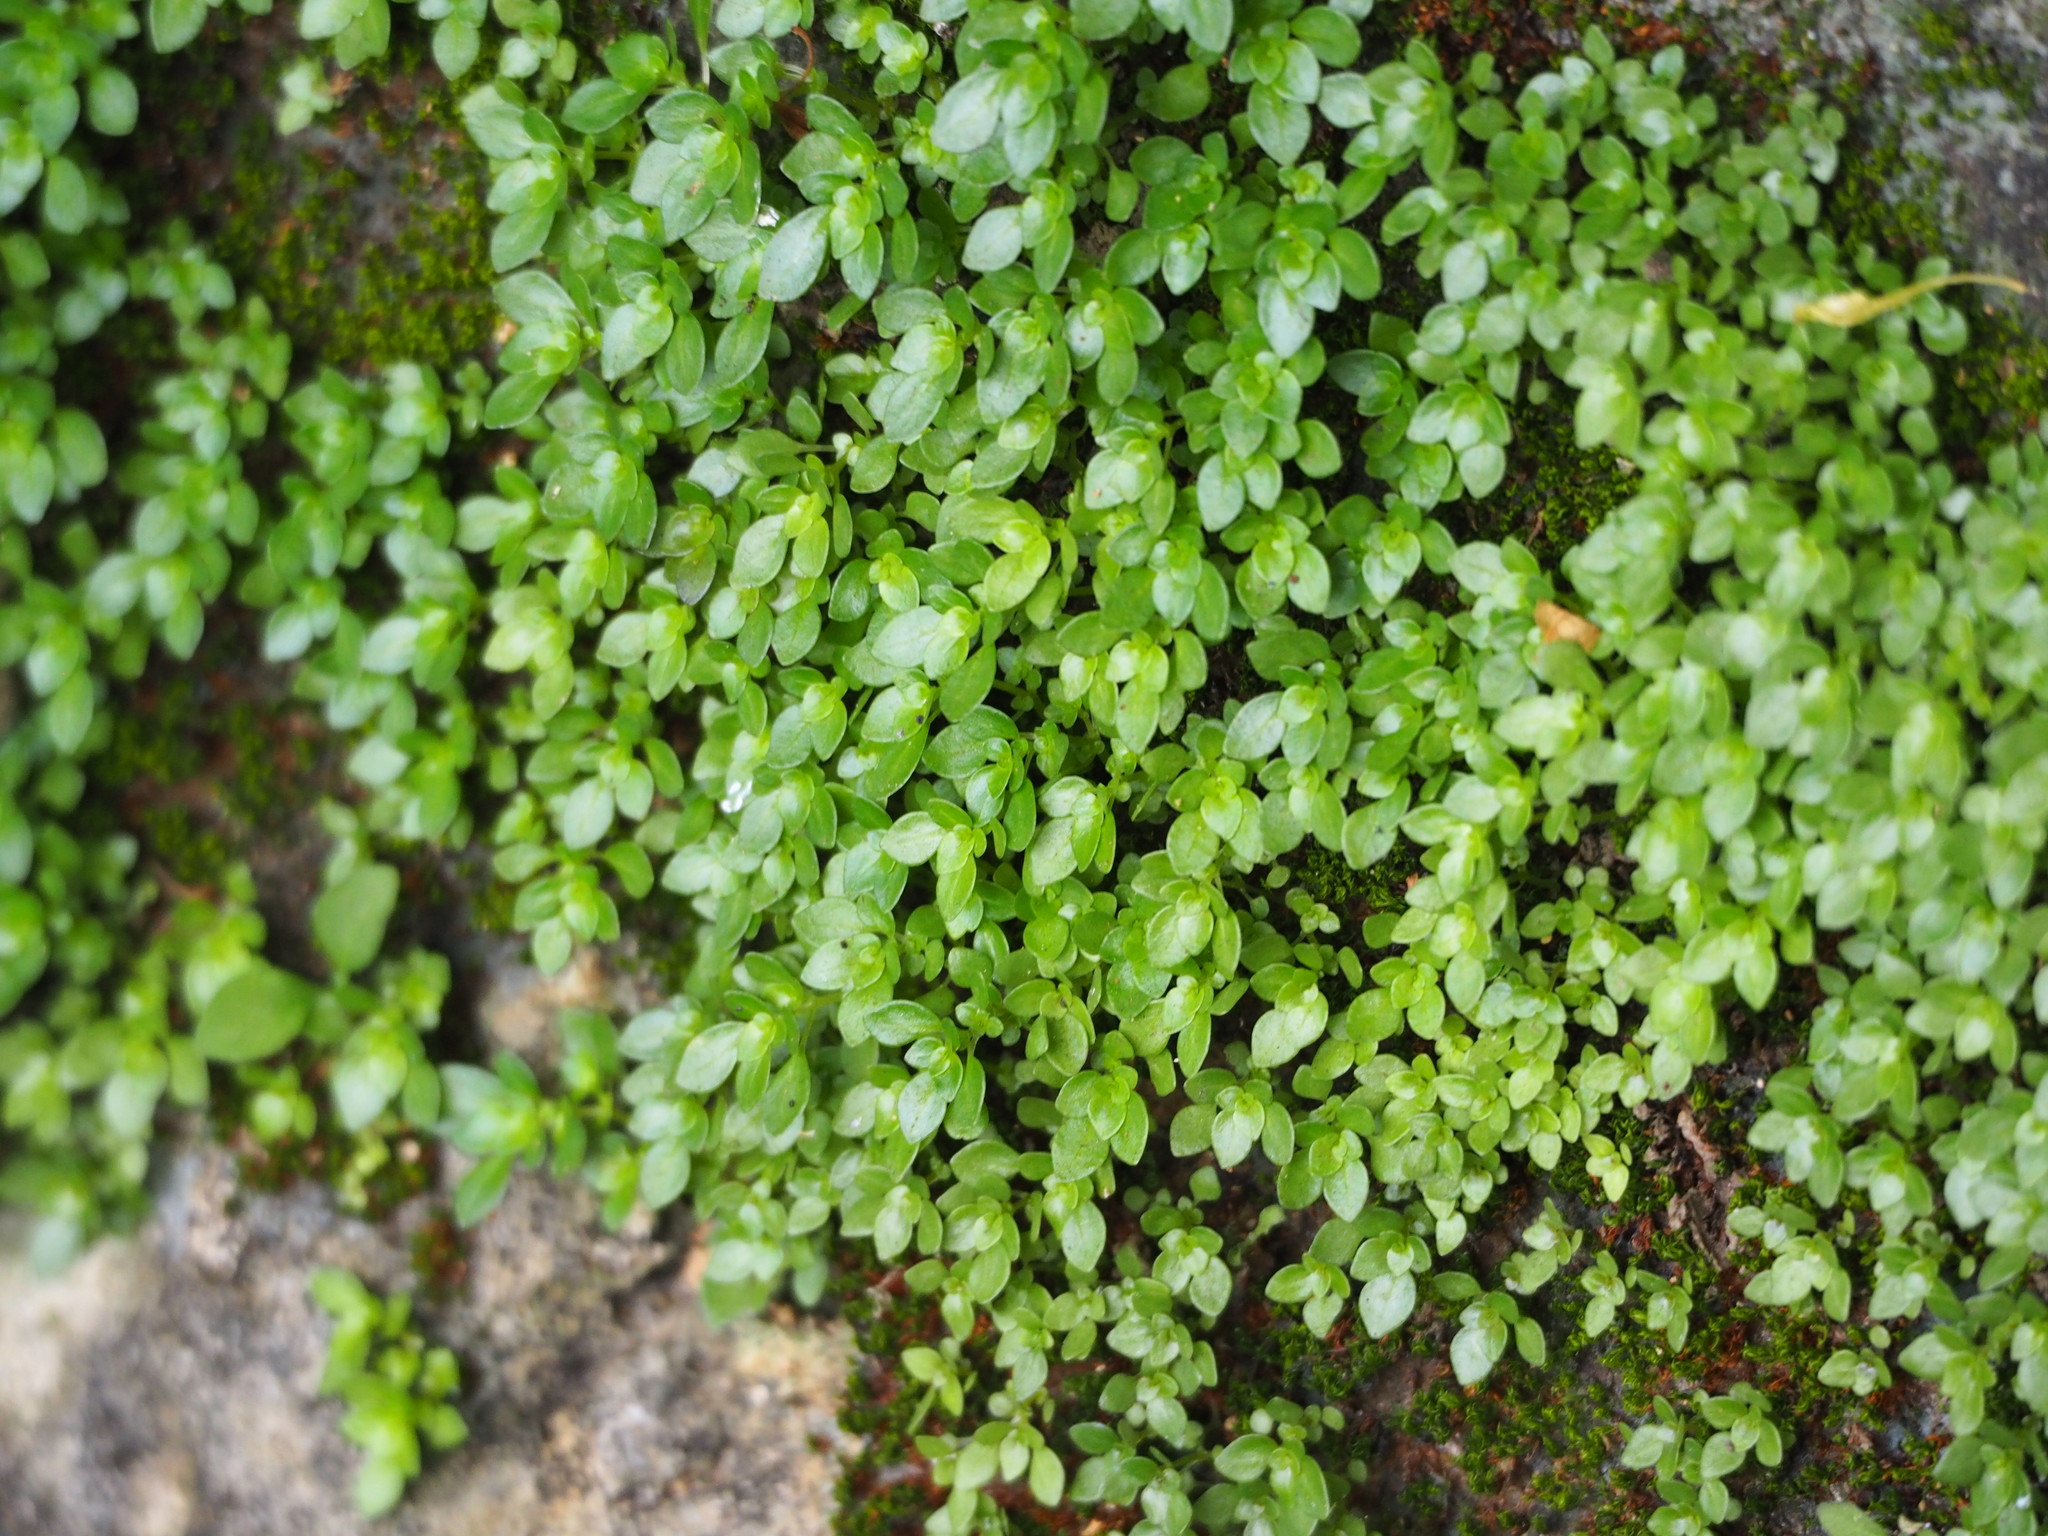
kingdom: Plantae
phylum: Tracheophyta
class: Magnoliopsida
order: Rosales
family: Urticaceae
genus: Pilea
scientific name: Pilea microphylla
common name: Artillery-plant
